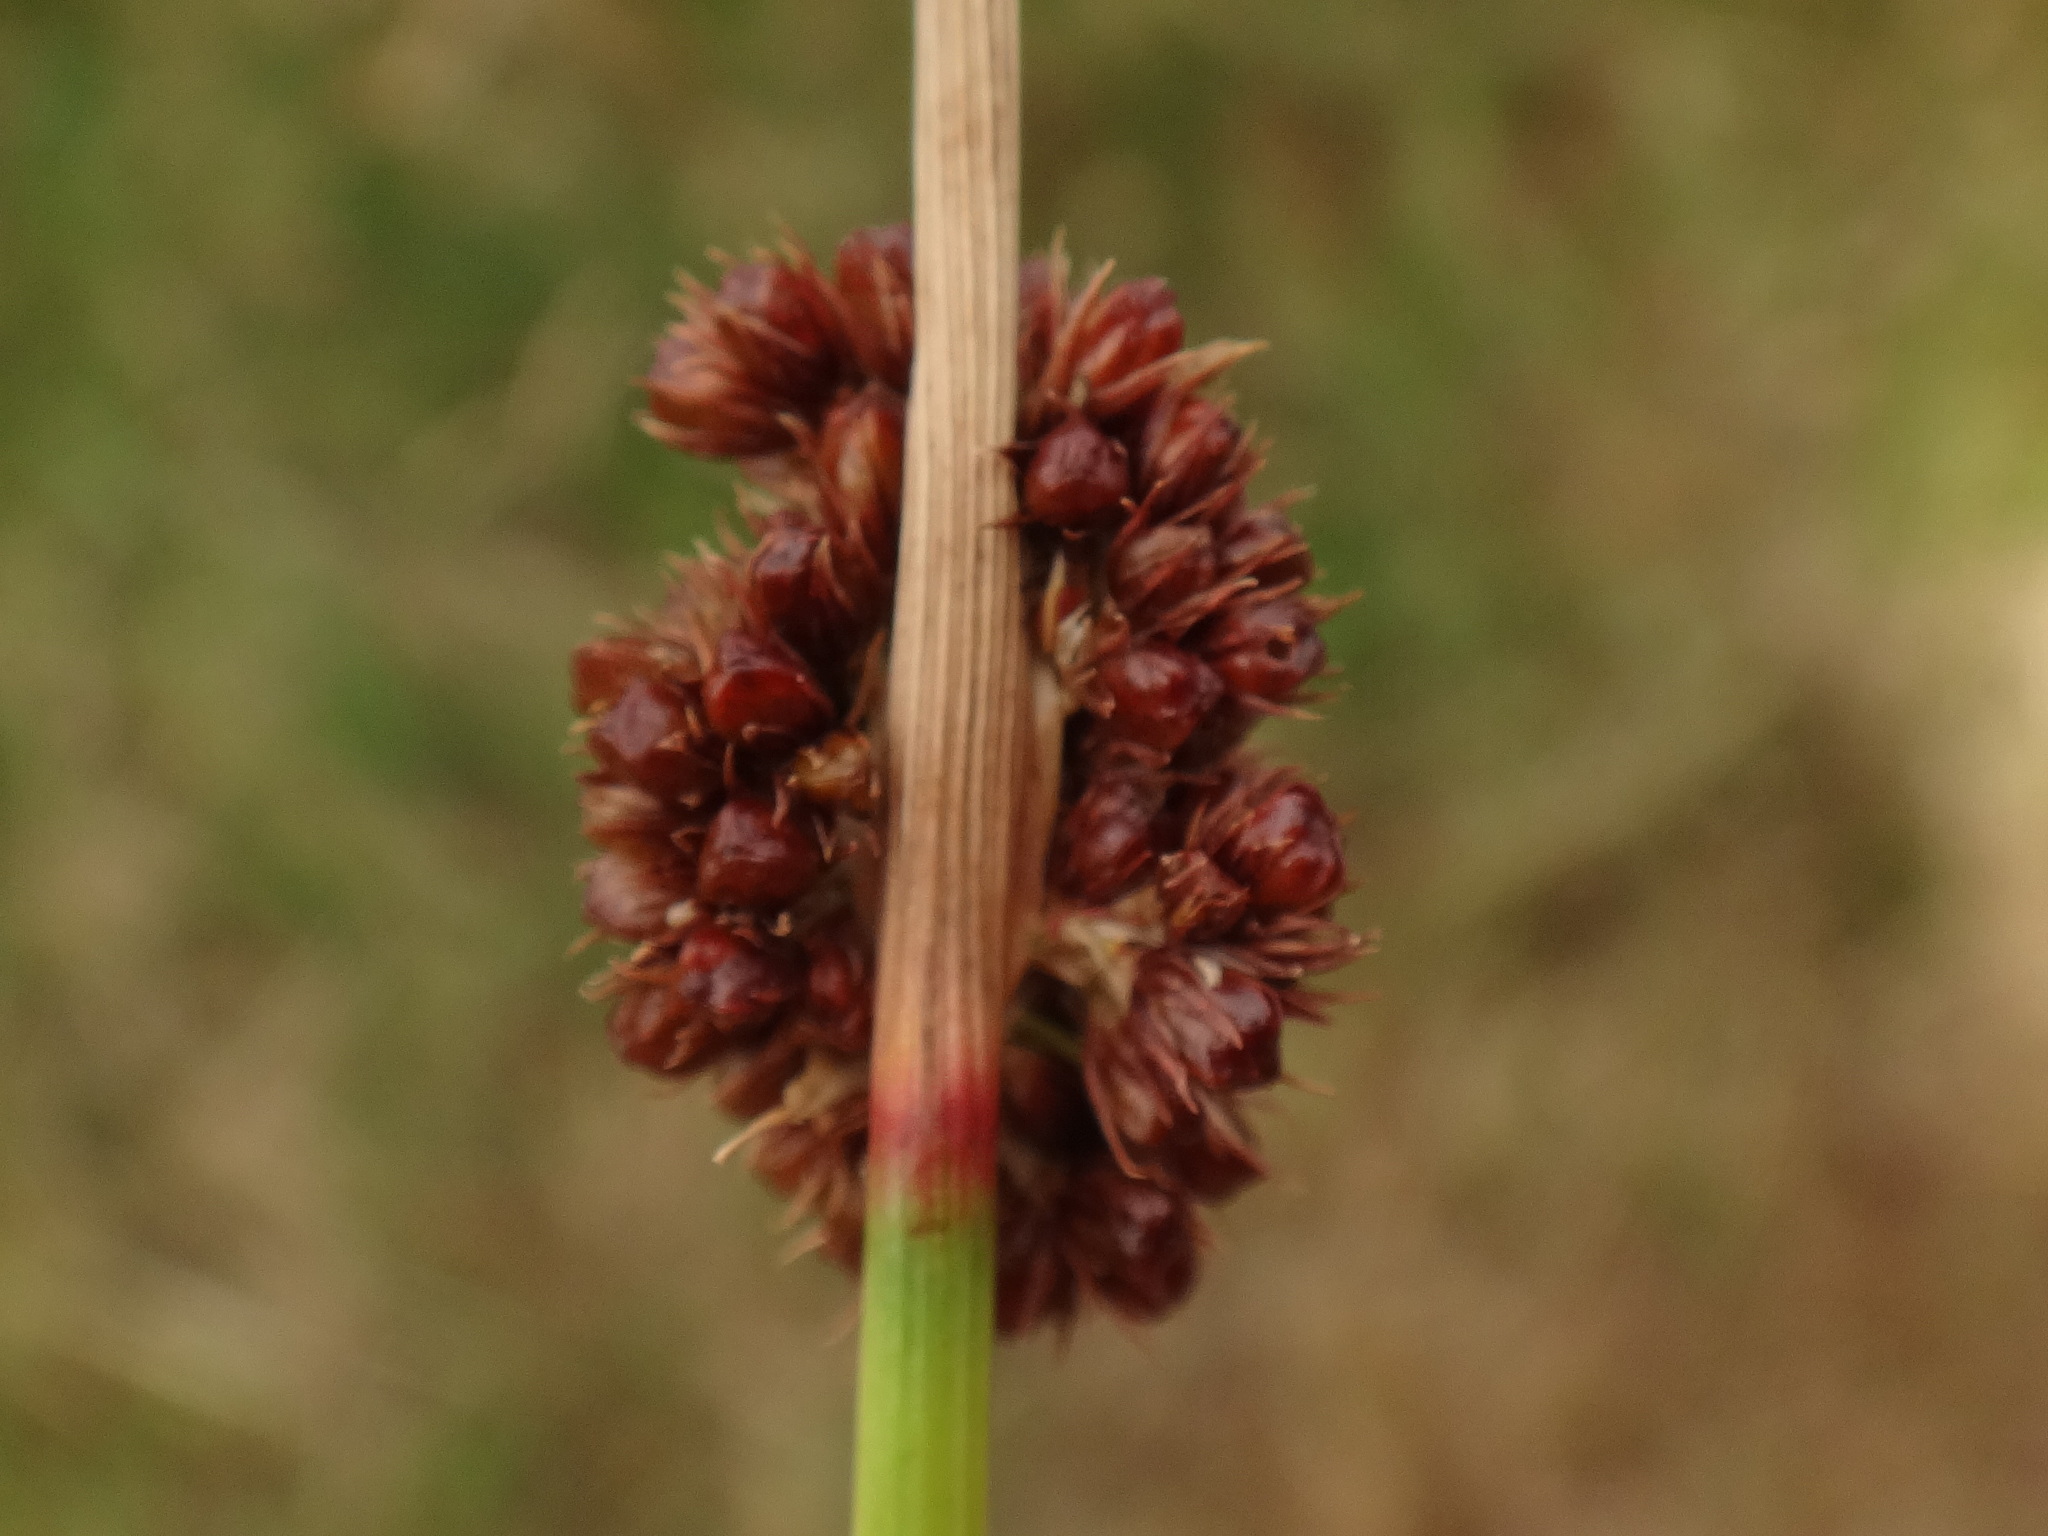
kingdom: Plantae
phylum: Tracheophyta
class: Liliopsida
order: Poales
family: Juncaceae
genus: Juncus
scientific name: Juncus conglomeratus
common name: Compact rush
